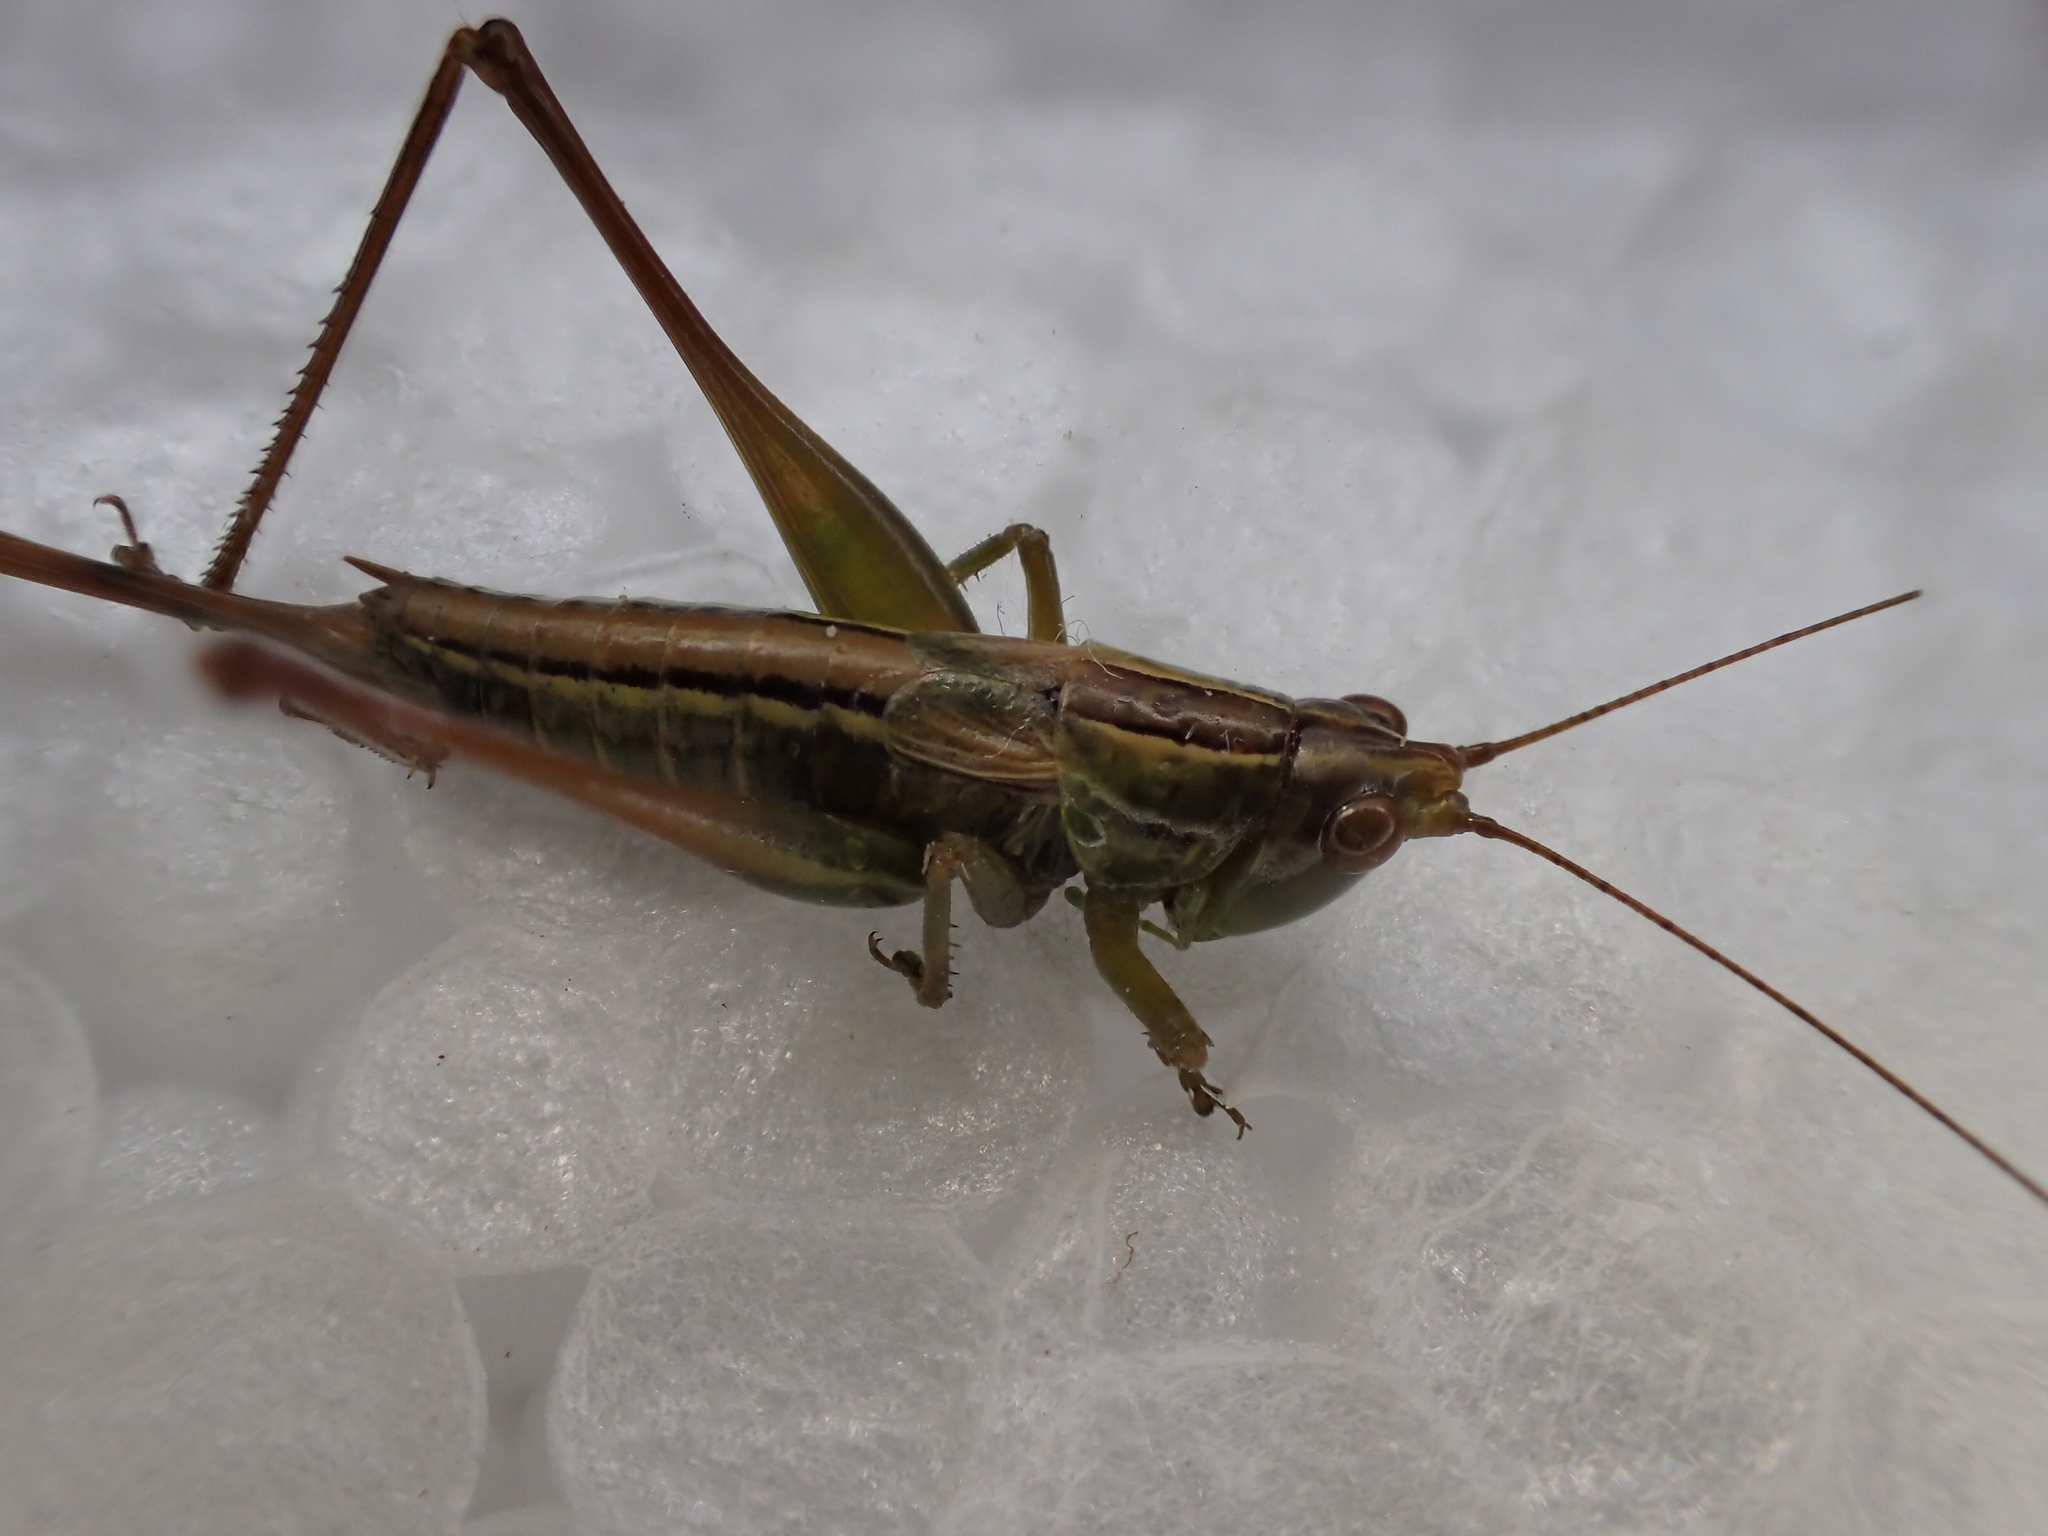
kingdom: Animalia
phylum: Arthropoda
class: Insecta
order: Orthoptera
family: Tettigoniidae
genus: Conocephalus
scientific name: Conocephalus bilineatus
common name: Small meadow katydid
